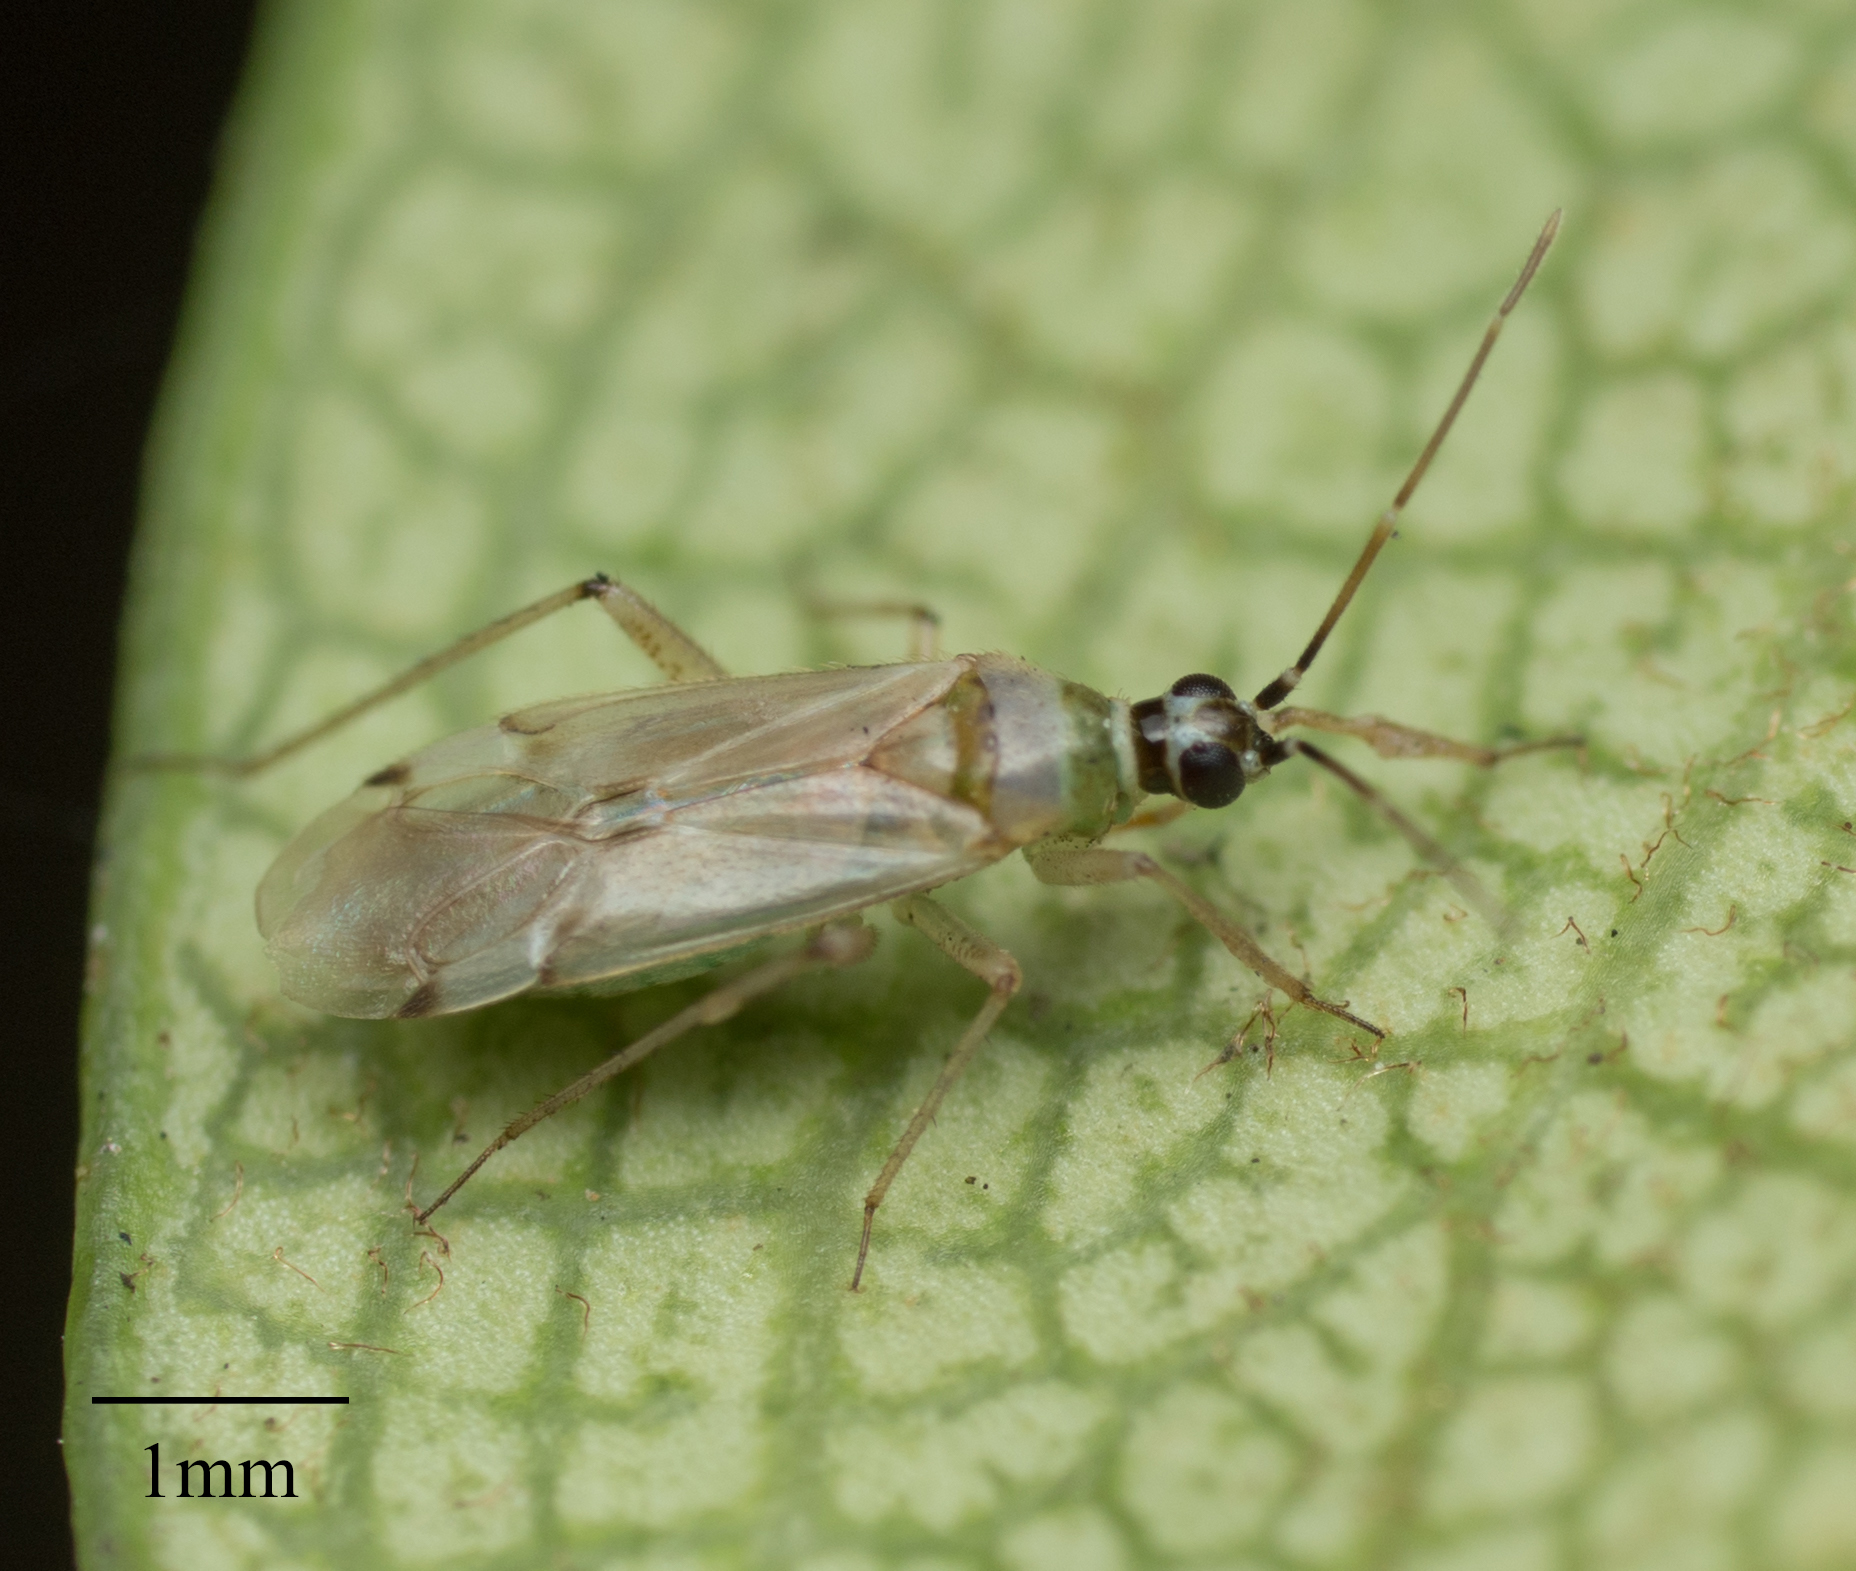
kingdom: Animalia
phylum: Arthropoda
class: Insecta
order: Hemiptera
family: Miridae
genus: Engytatus
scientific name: Engytatus modestus
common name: Tomato bug
